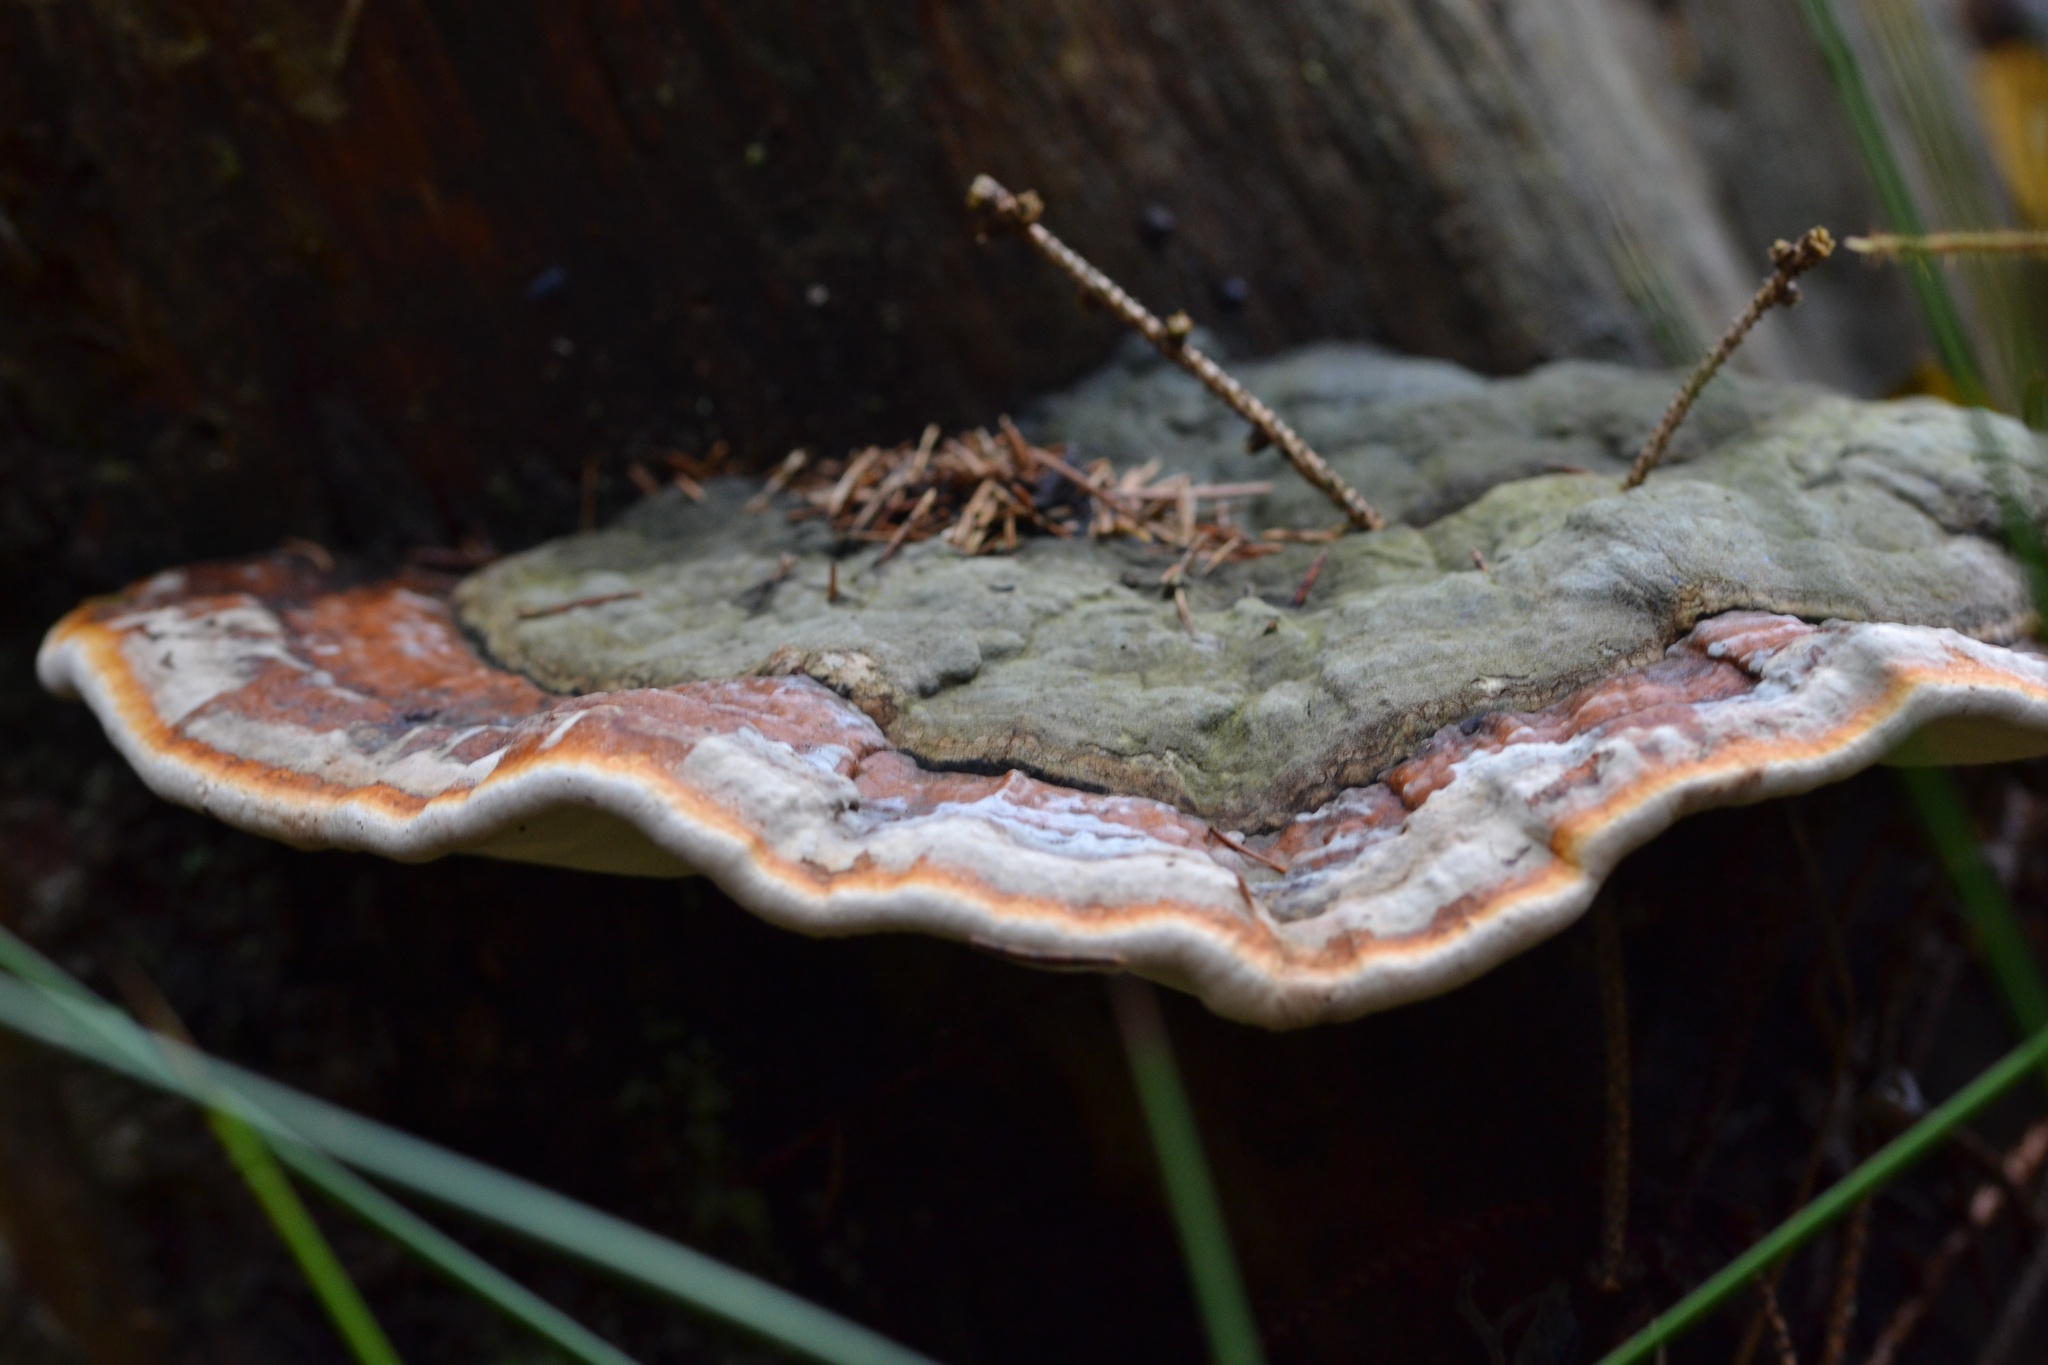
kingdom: Fungi
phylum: Basidiomycota
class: Agaricomycetes
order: Polyporales
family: Fomitopsidaceae
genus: Fomitopsis
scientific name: Fomitopsis pinicola
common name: Red-belted bracket
